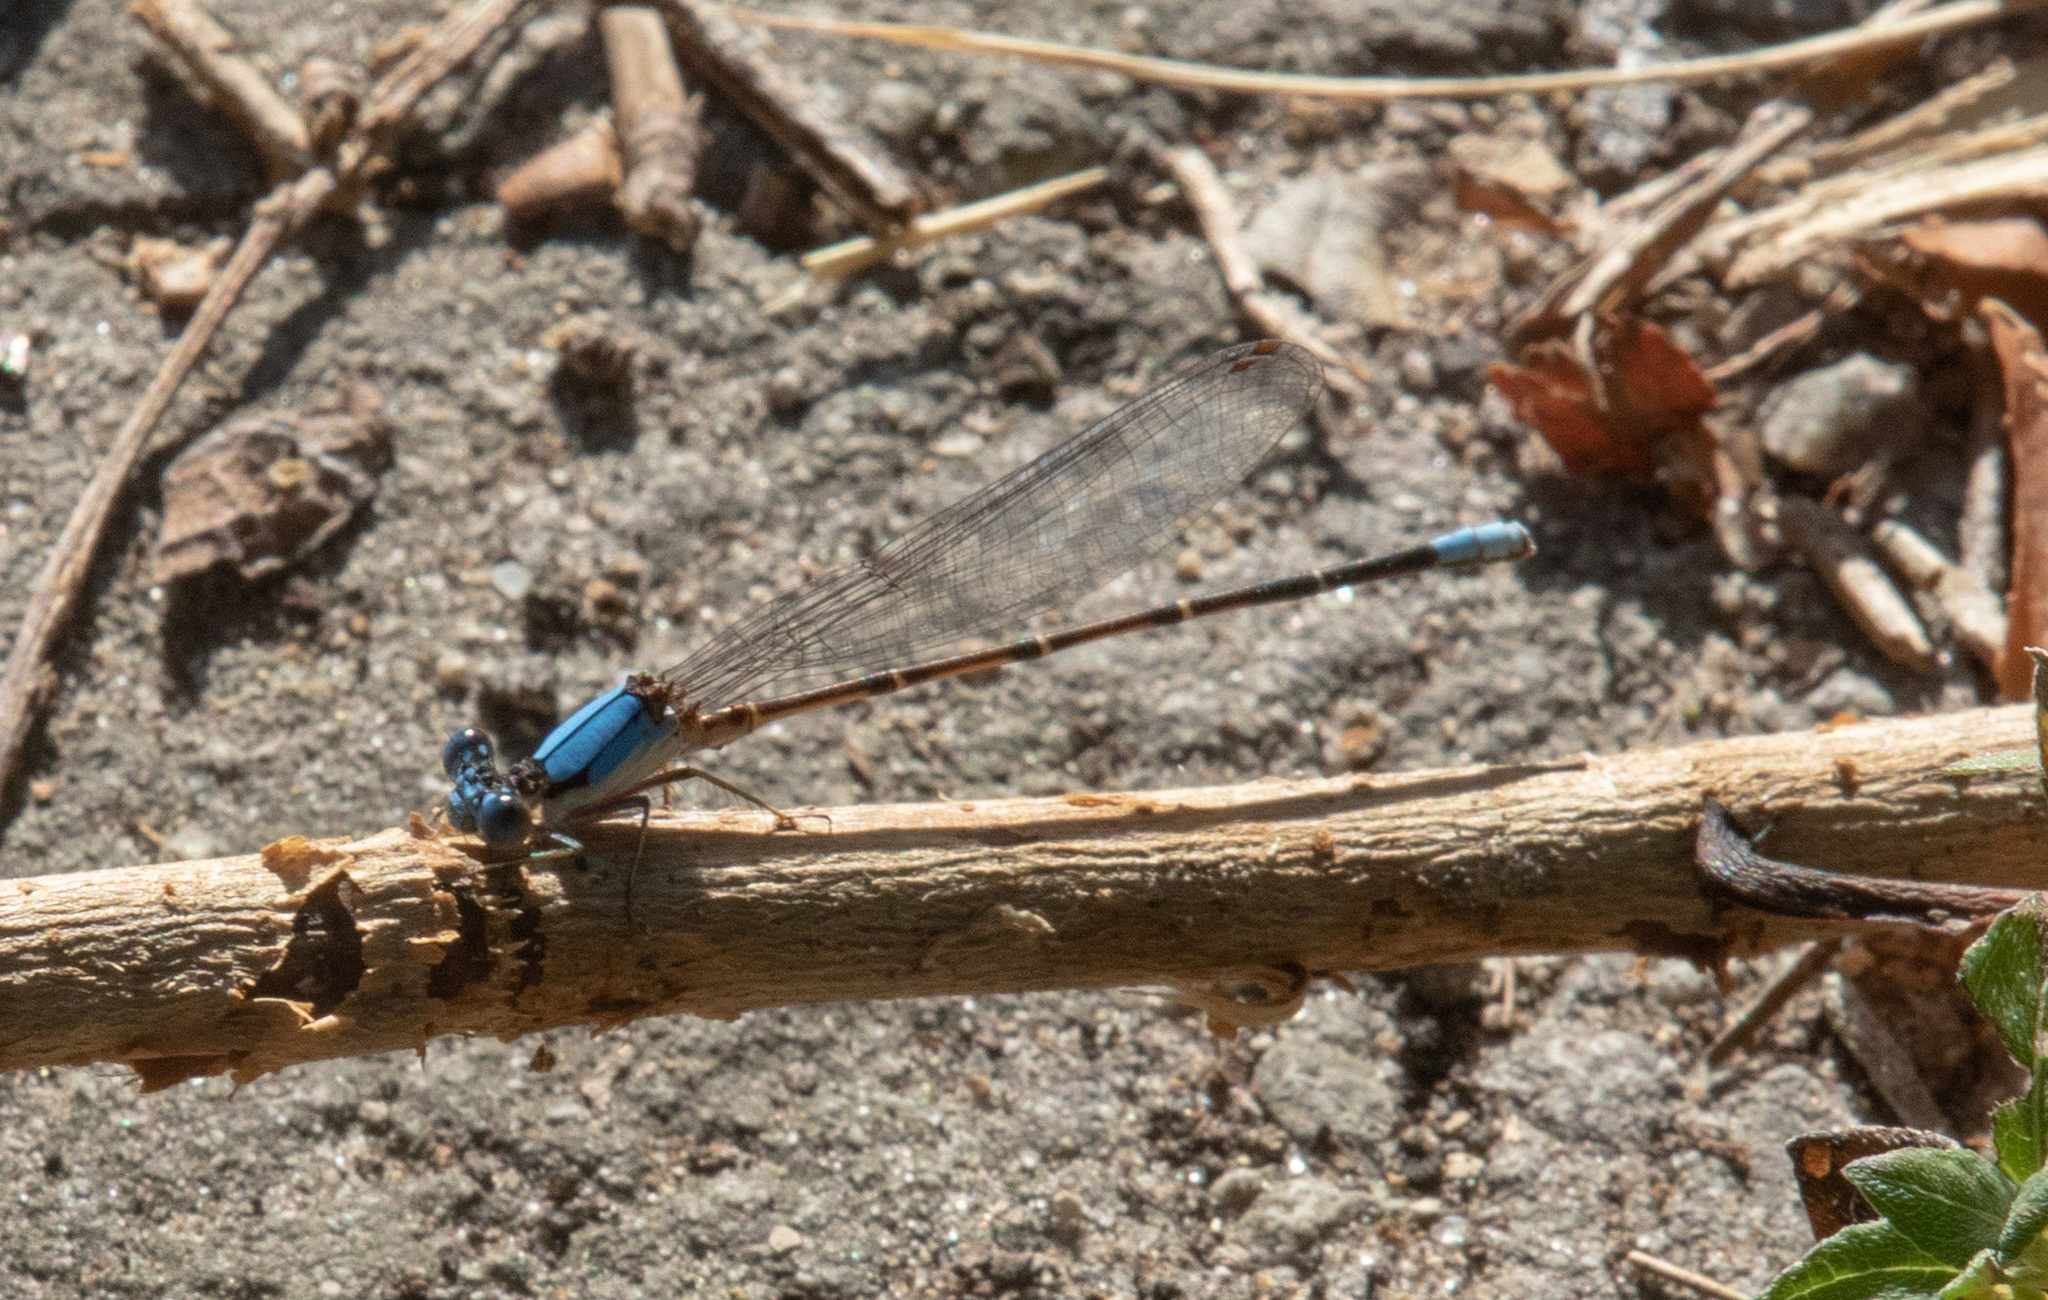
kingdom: Animalia
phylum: Arthropoda
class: Insecta
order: Odonata
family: Coenagrionidae
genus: Argia
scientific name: Argia apicalis
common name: Blue-fronted dancer
